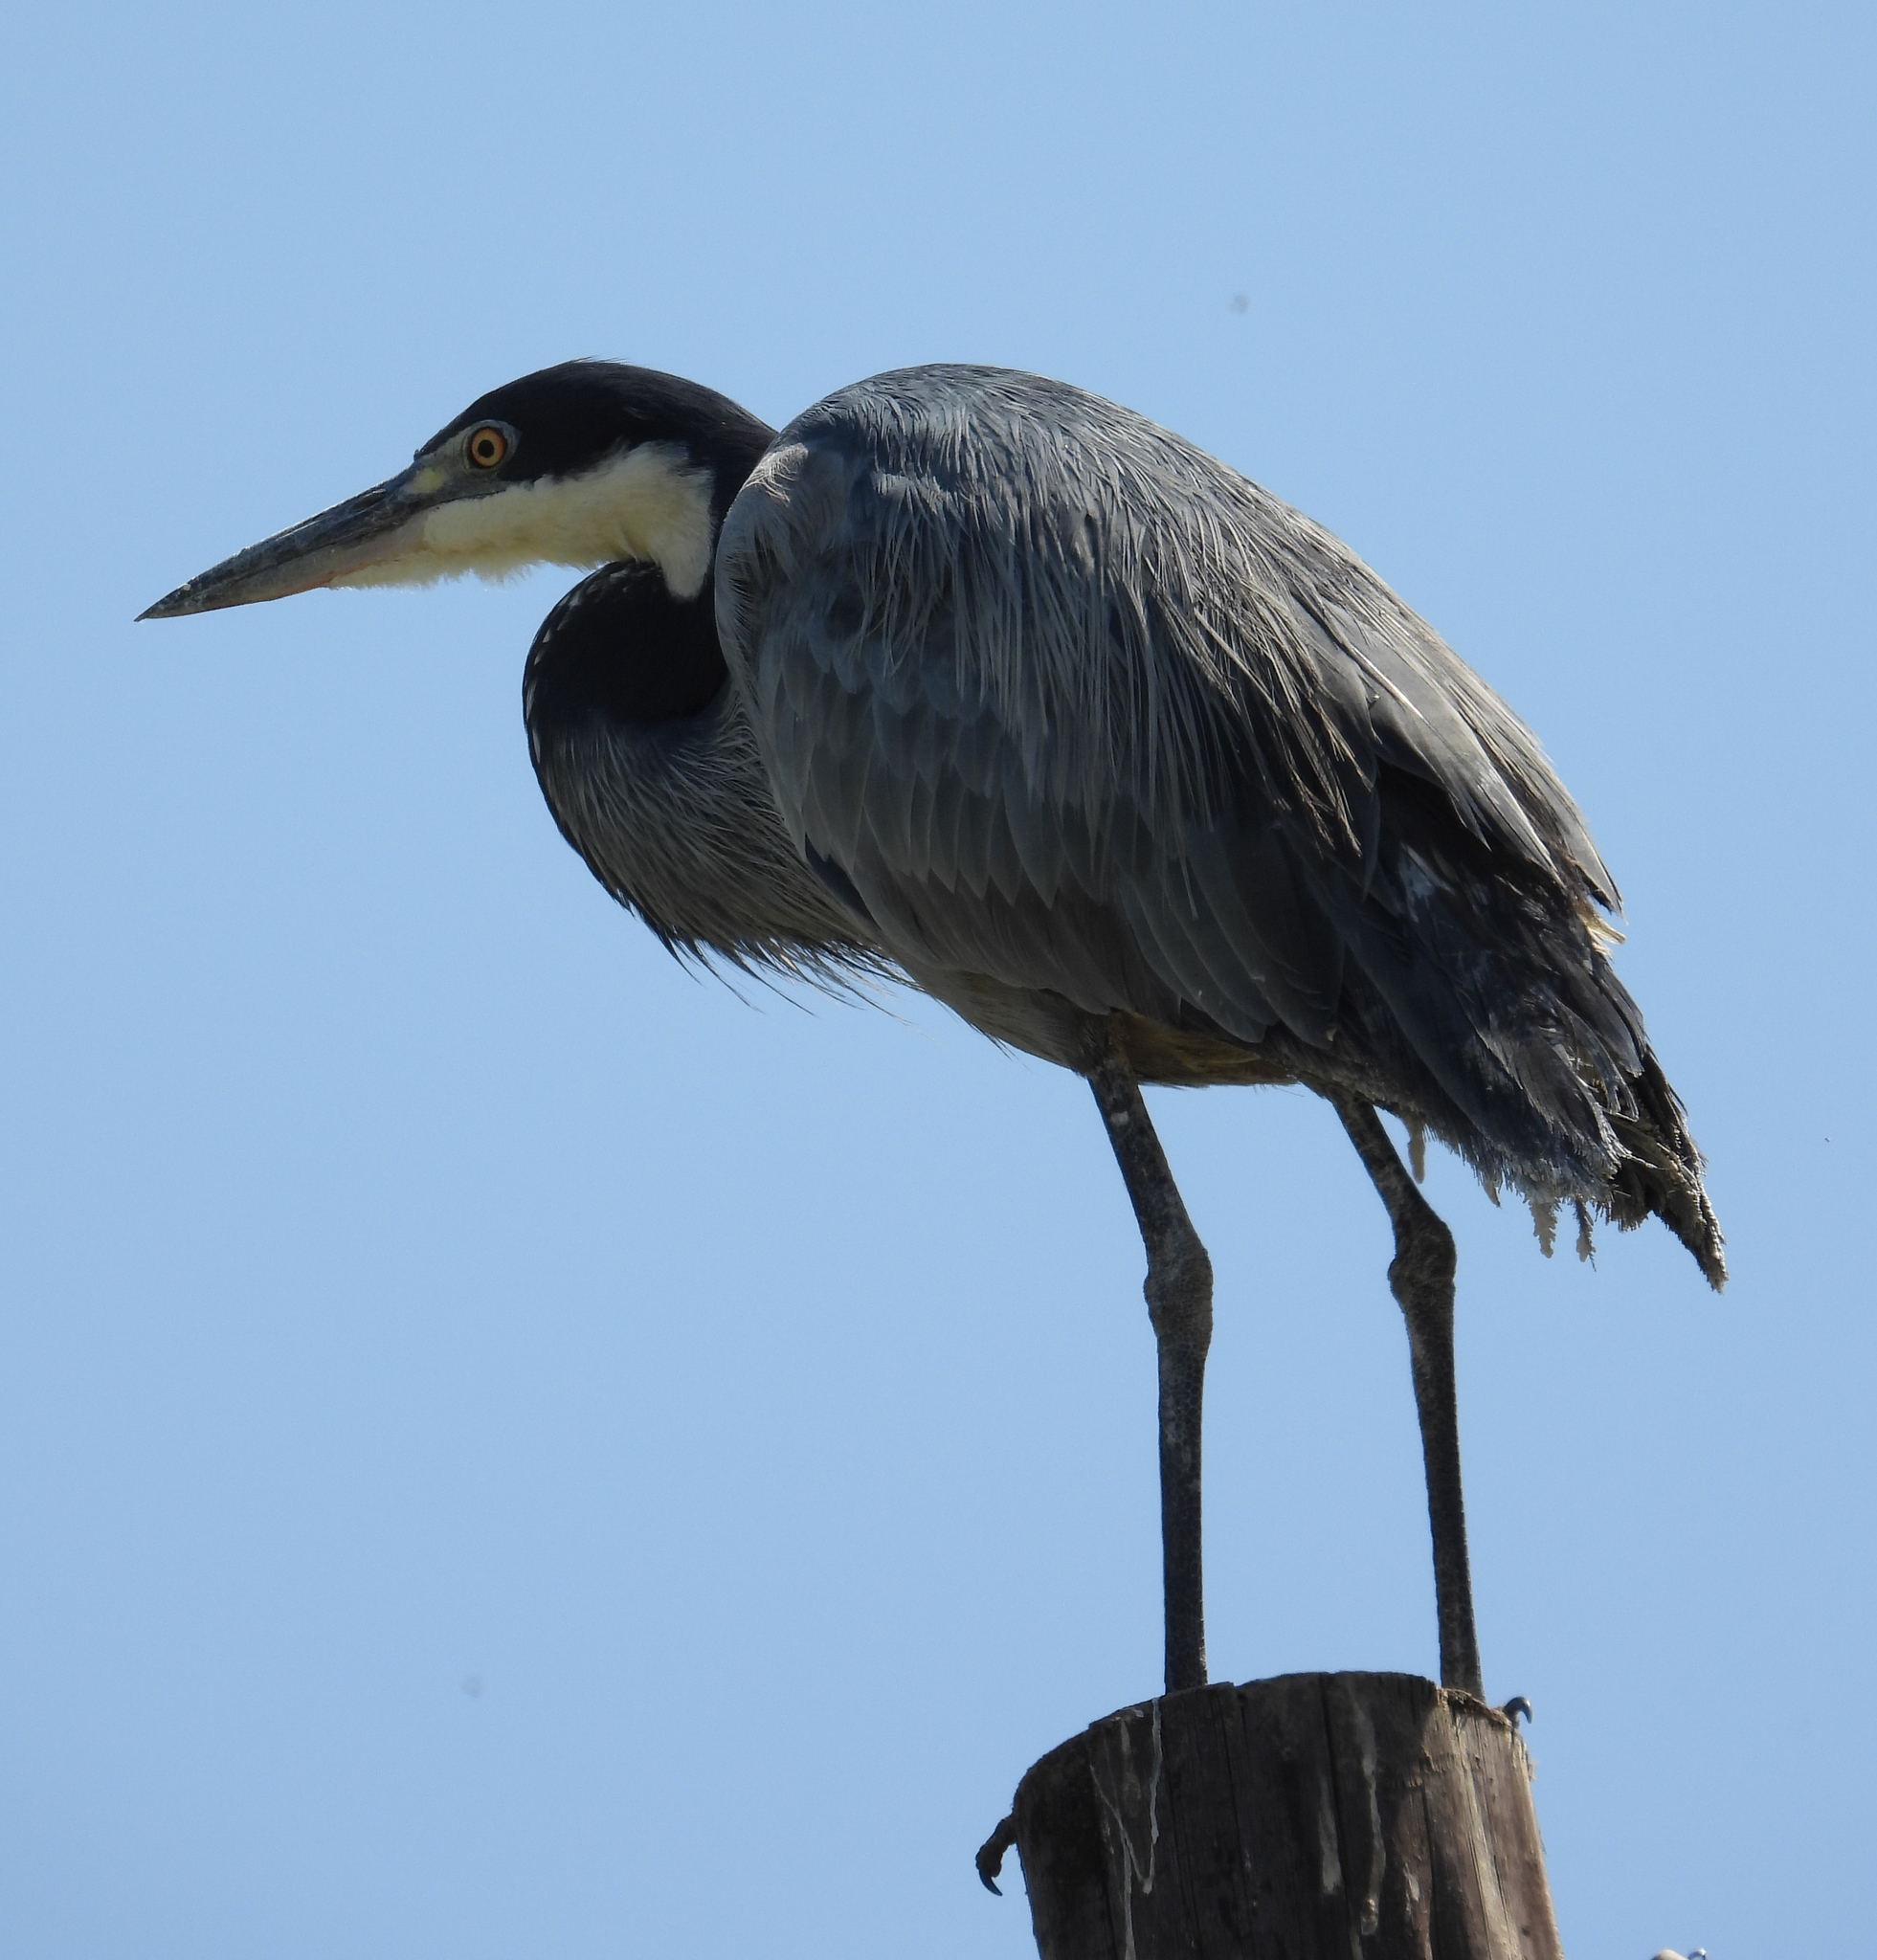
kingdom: Animalia
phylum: Chordata
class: Aves
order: Pelecaniformes
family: Ardeidae
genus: Ardea
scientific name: Ardea melanocephala
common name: Black-headed heron
